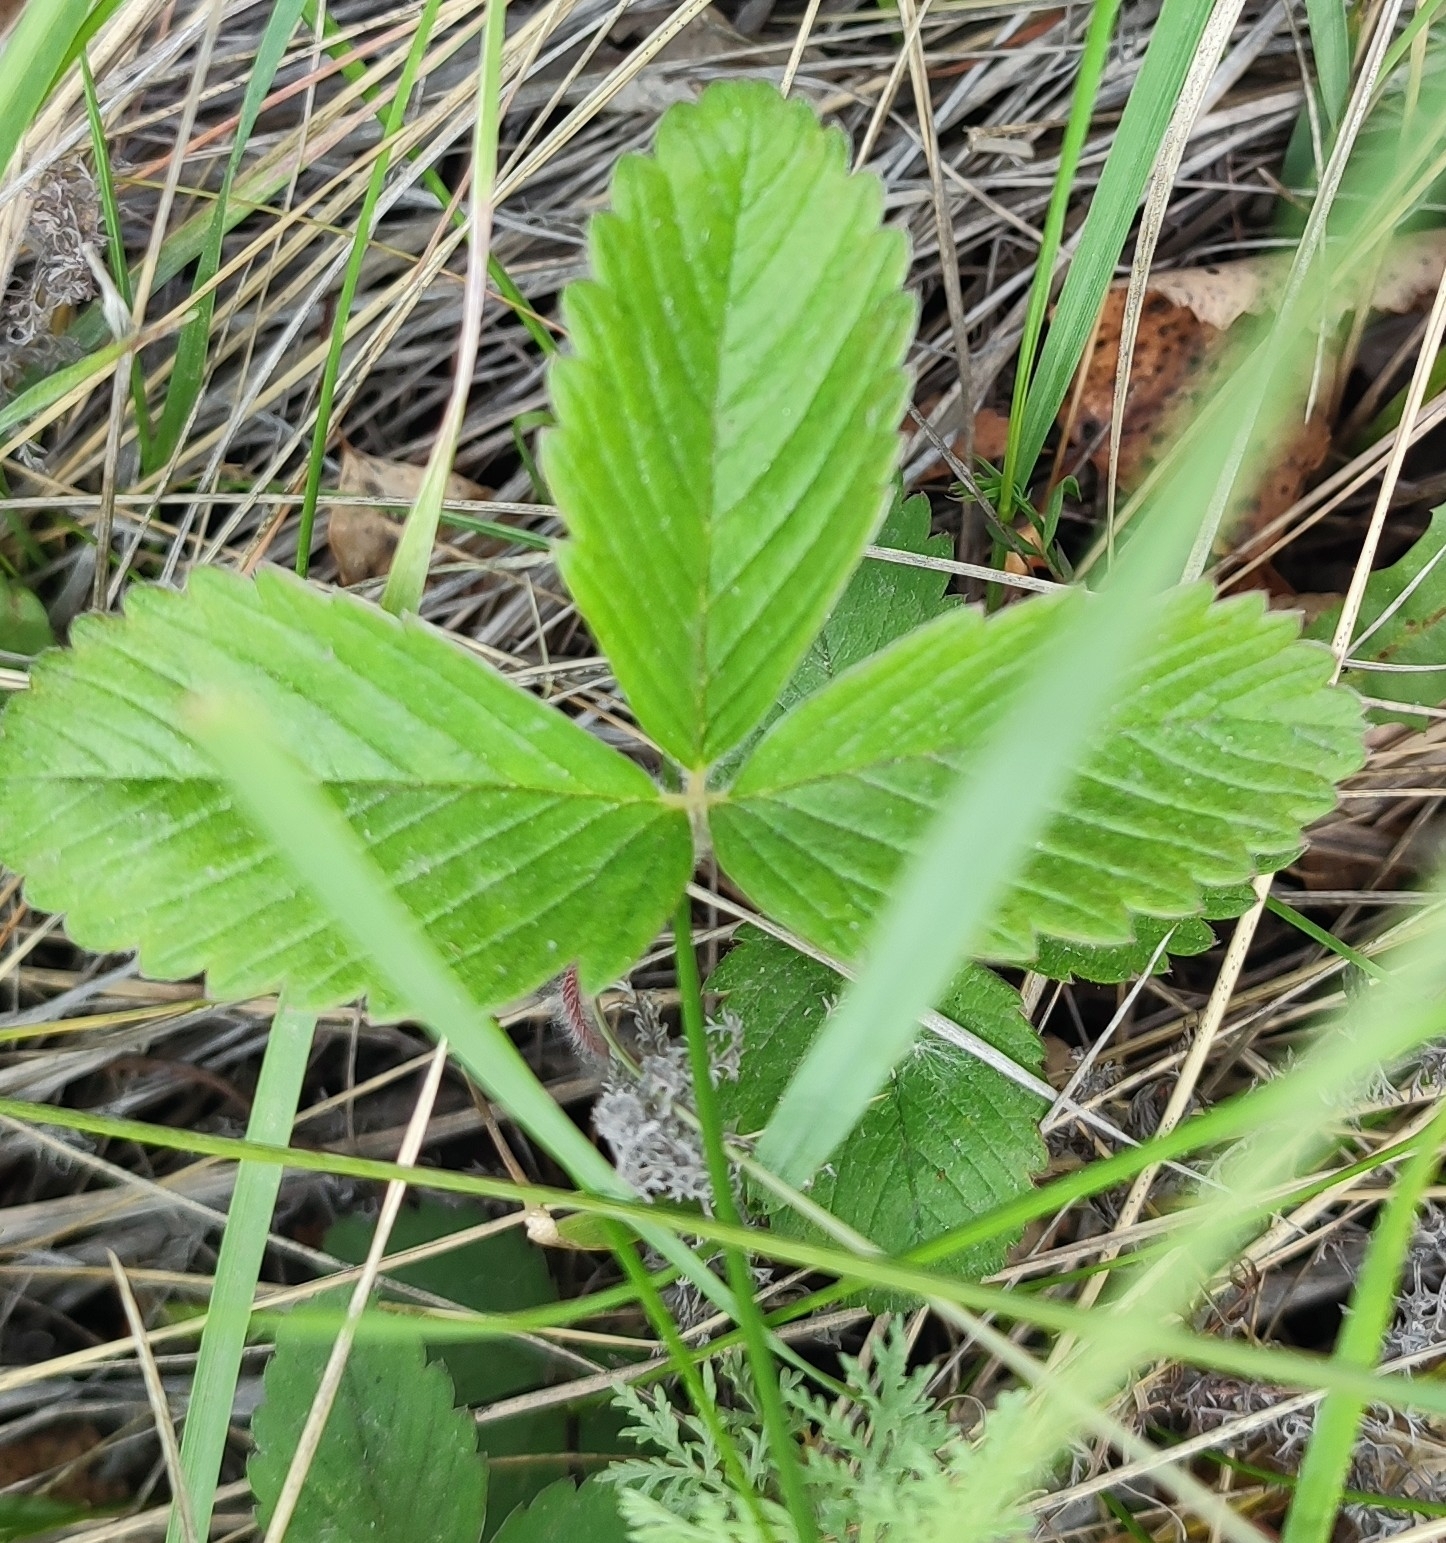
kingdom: Plantae
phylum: Tracheophyta
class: Magnoliopsida
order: Rosales
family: Rosaceae
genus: Fragaria
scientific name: Fragaria viridis
